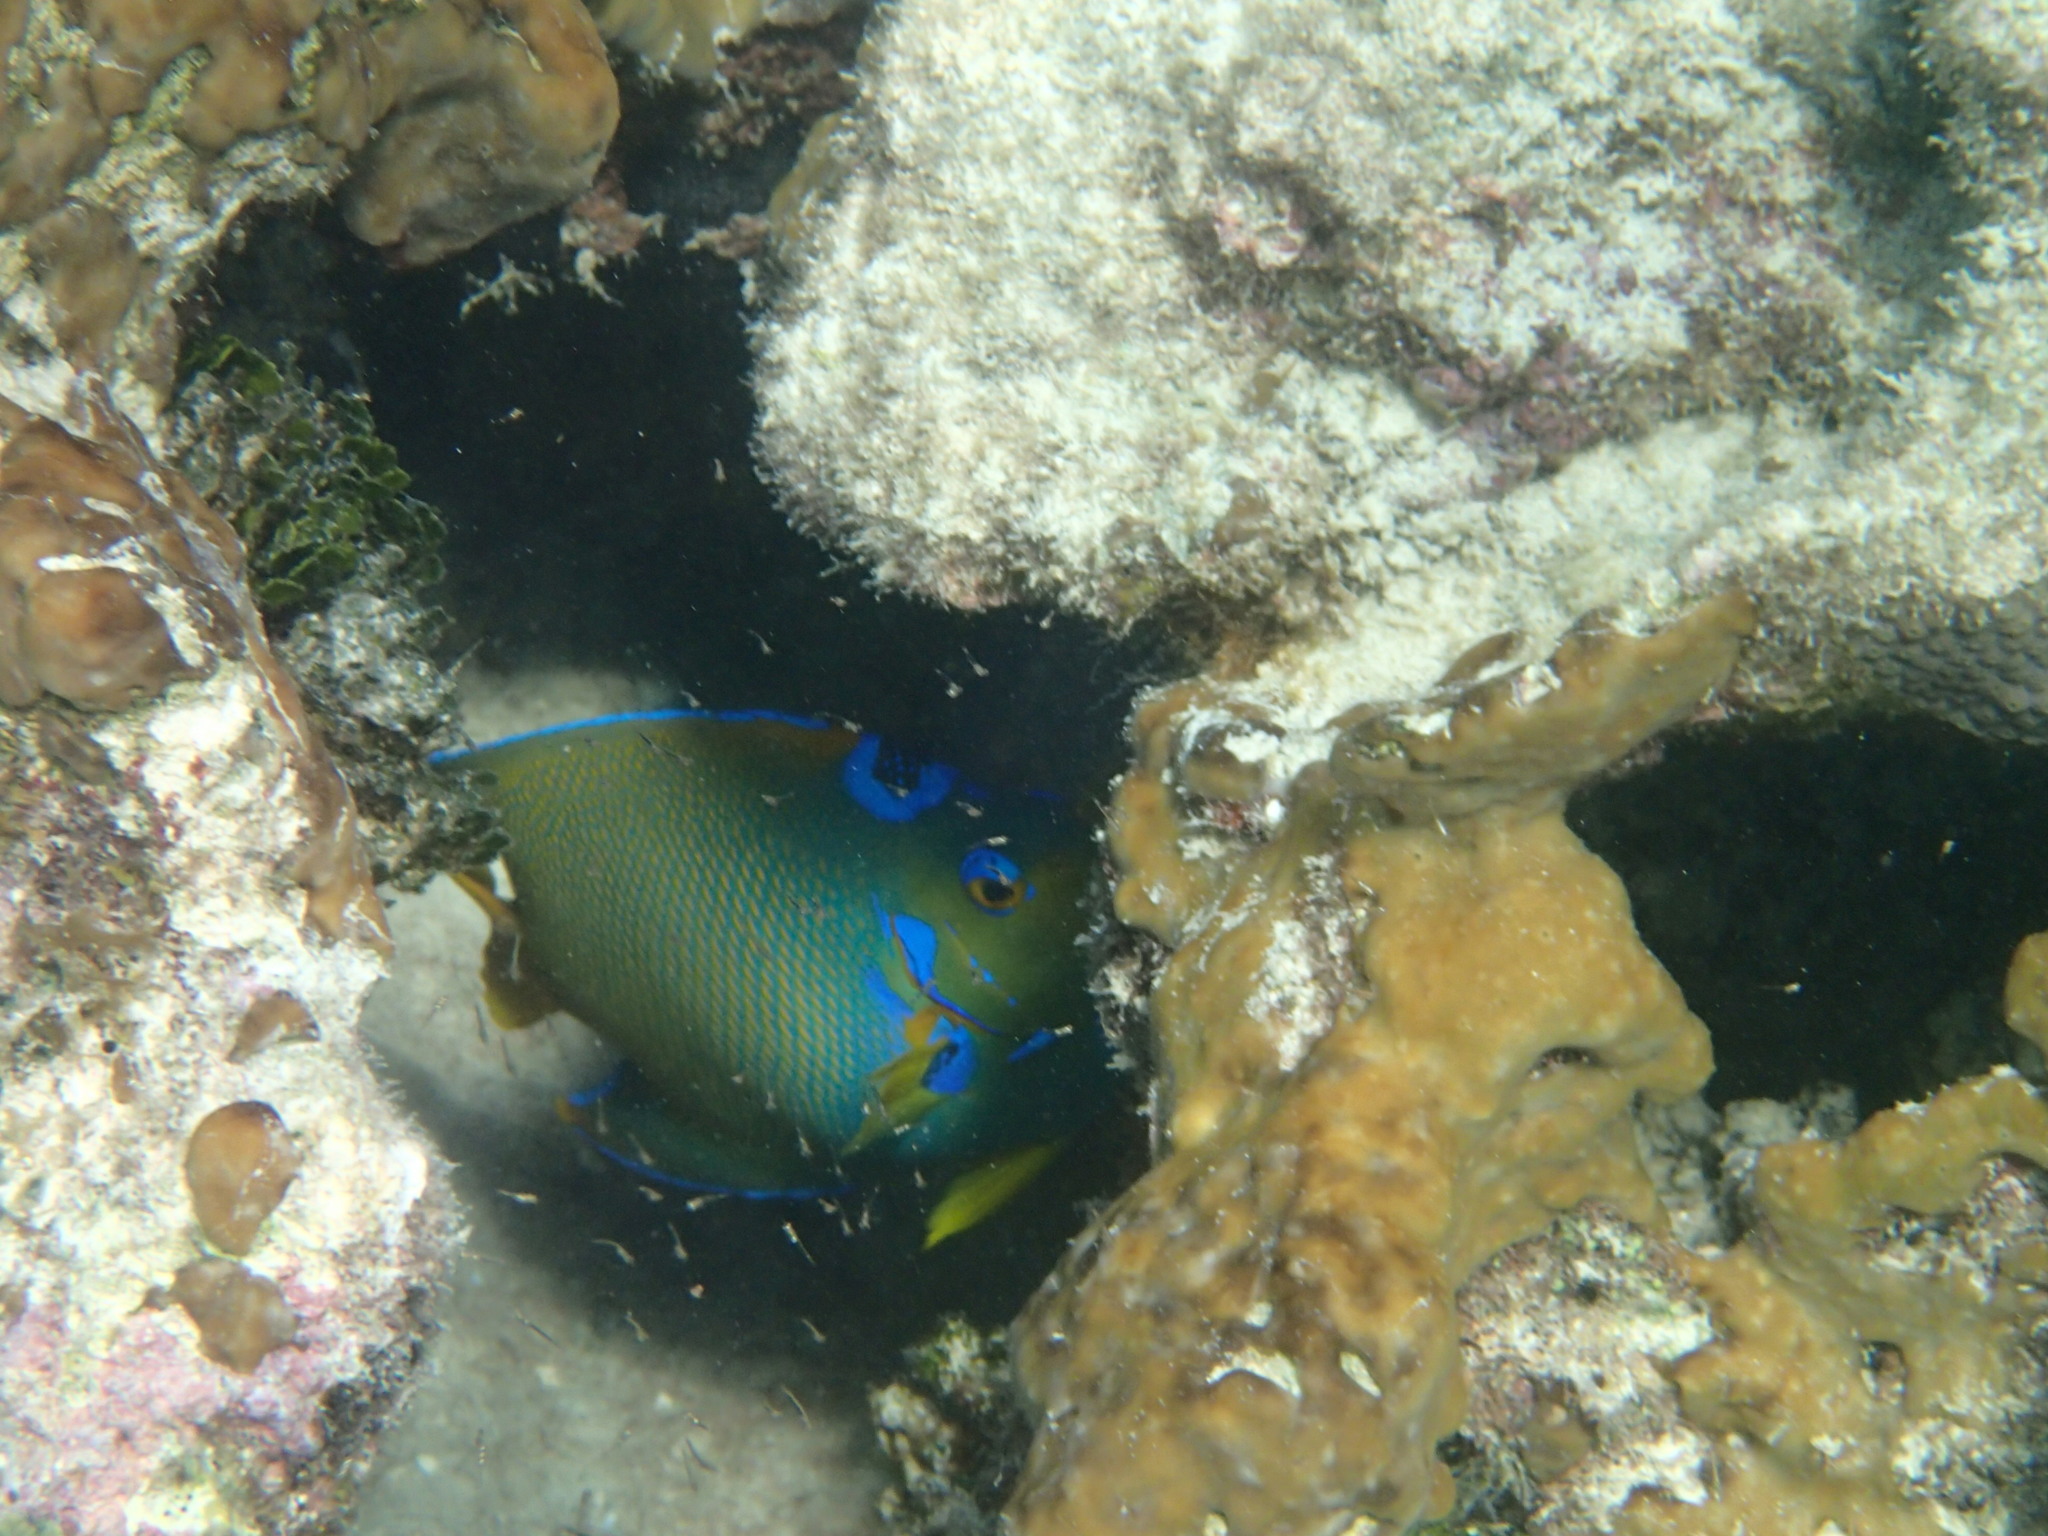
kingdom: Animalia
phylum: Chordata
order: Perciformes
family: Pomacanthidae
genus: Holacanthus
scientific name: Holacanthus ciliaris
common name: Queen angelfish
